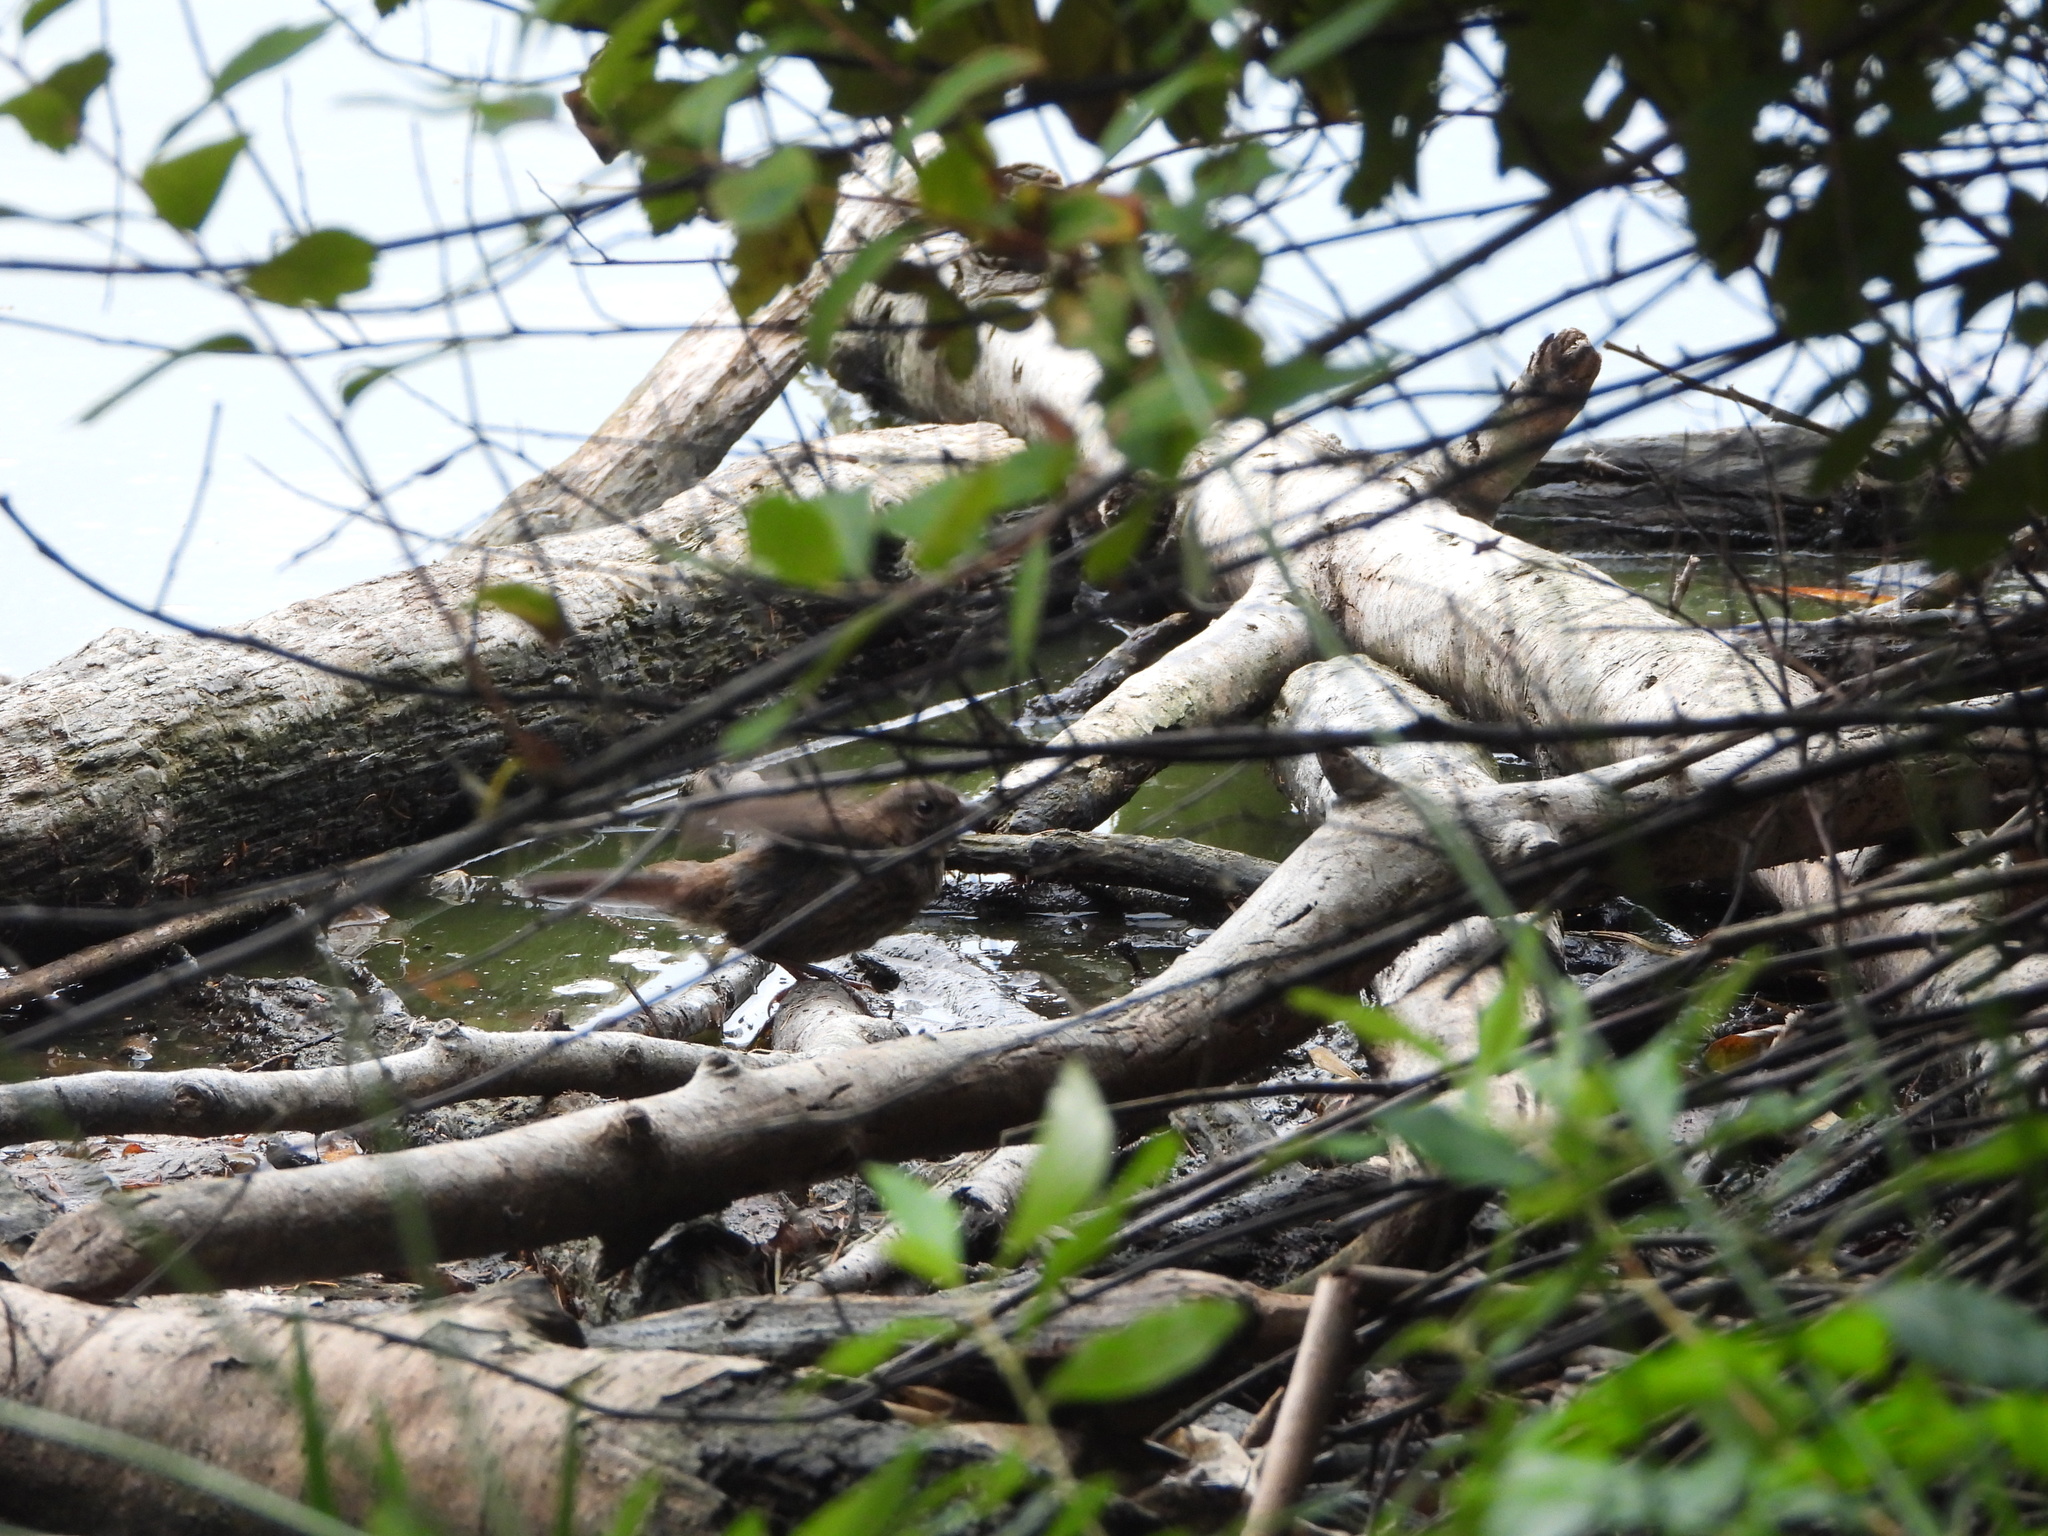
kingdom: Animalia
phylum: Chordata
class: Aves
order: Passeriformes
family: Passerellidae
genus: Melospiza
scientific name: Melospiza melodia
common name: Song sparrow
